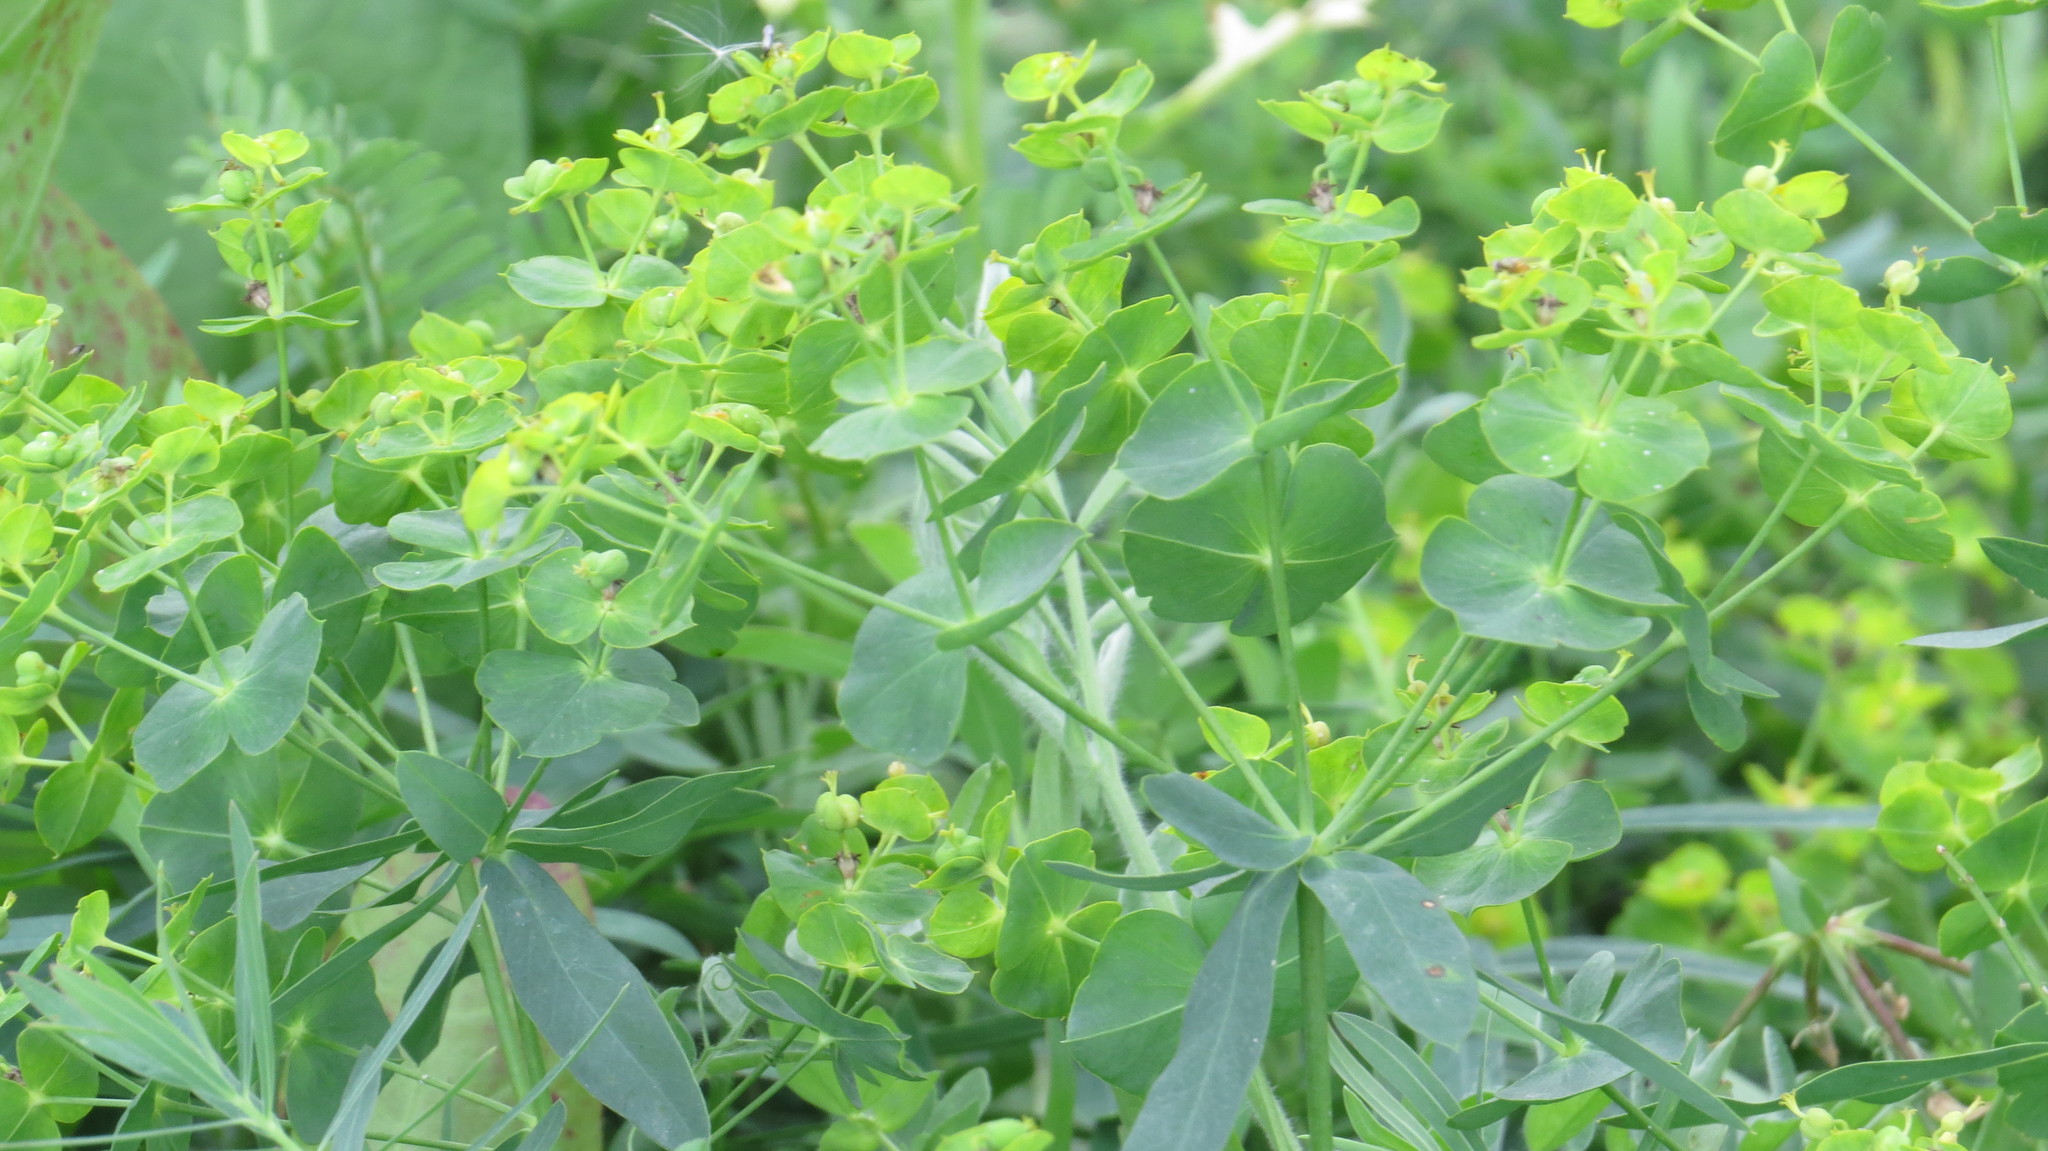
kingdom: Plantae
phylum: Tracheophyta
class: Magnoliopsida
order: Malpighiales
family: Euphorbiaceae
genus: Euphorbia
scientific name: Euphorbia virgata
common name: Leafy spurge
